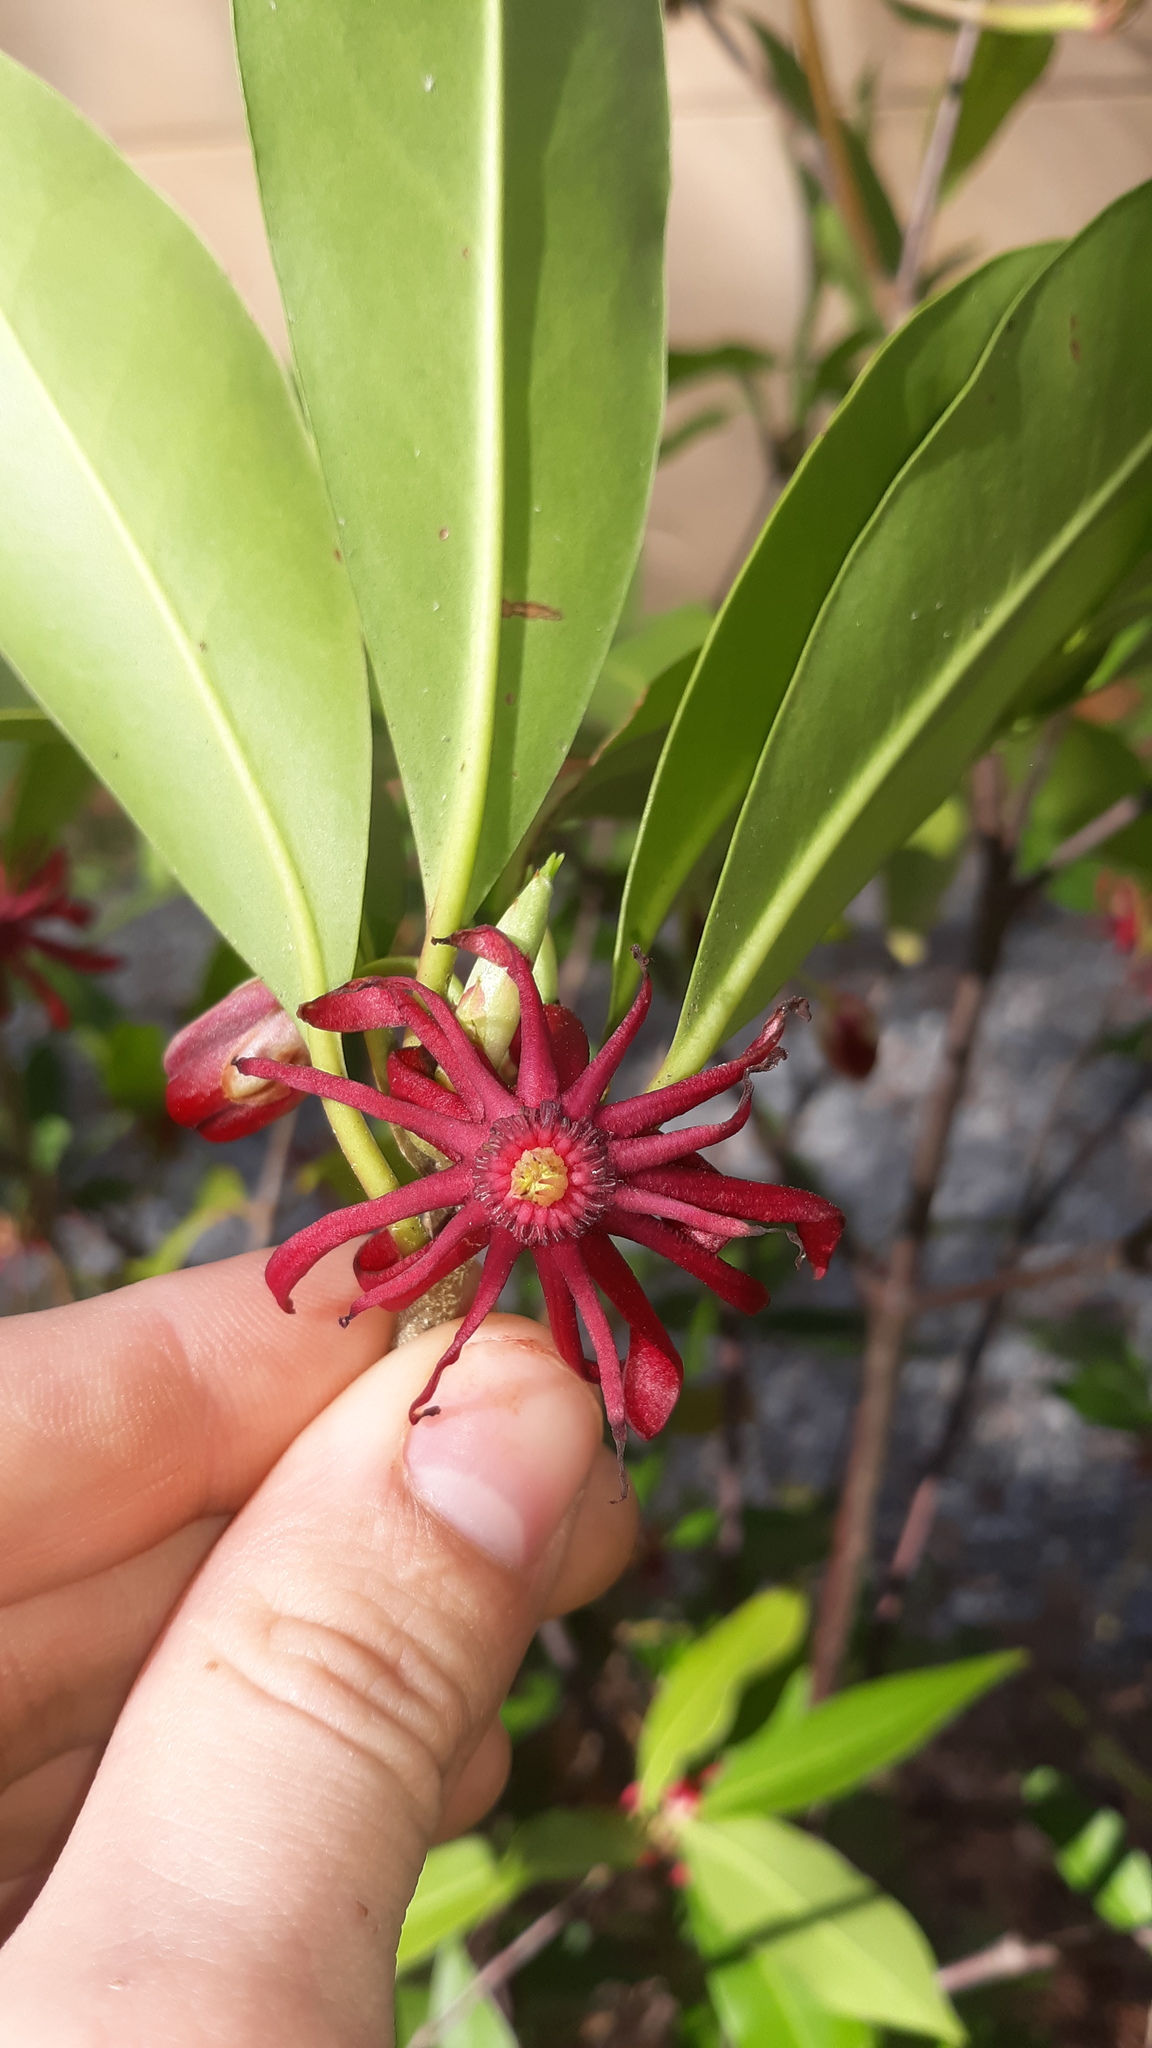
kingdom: Plantae
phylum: Tracheophyta
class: Magnoliopsida
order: Austrobaileyales
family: Schisandraceae
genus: Illicium
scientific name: Illicium floridanum
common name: Florida anisetree
